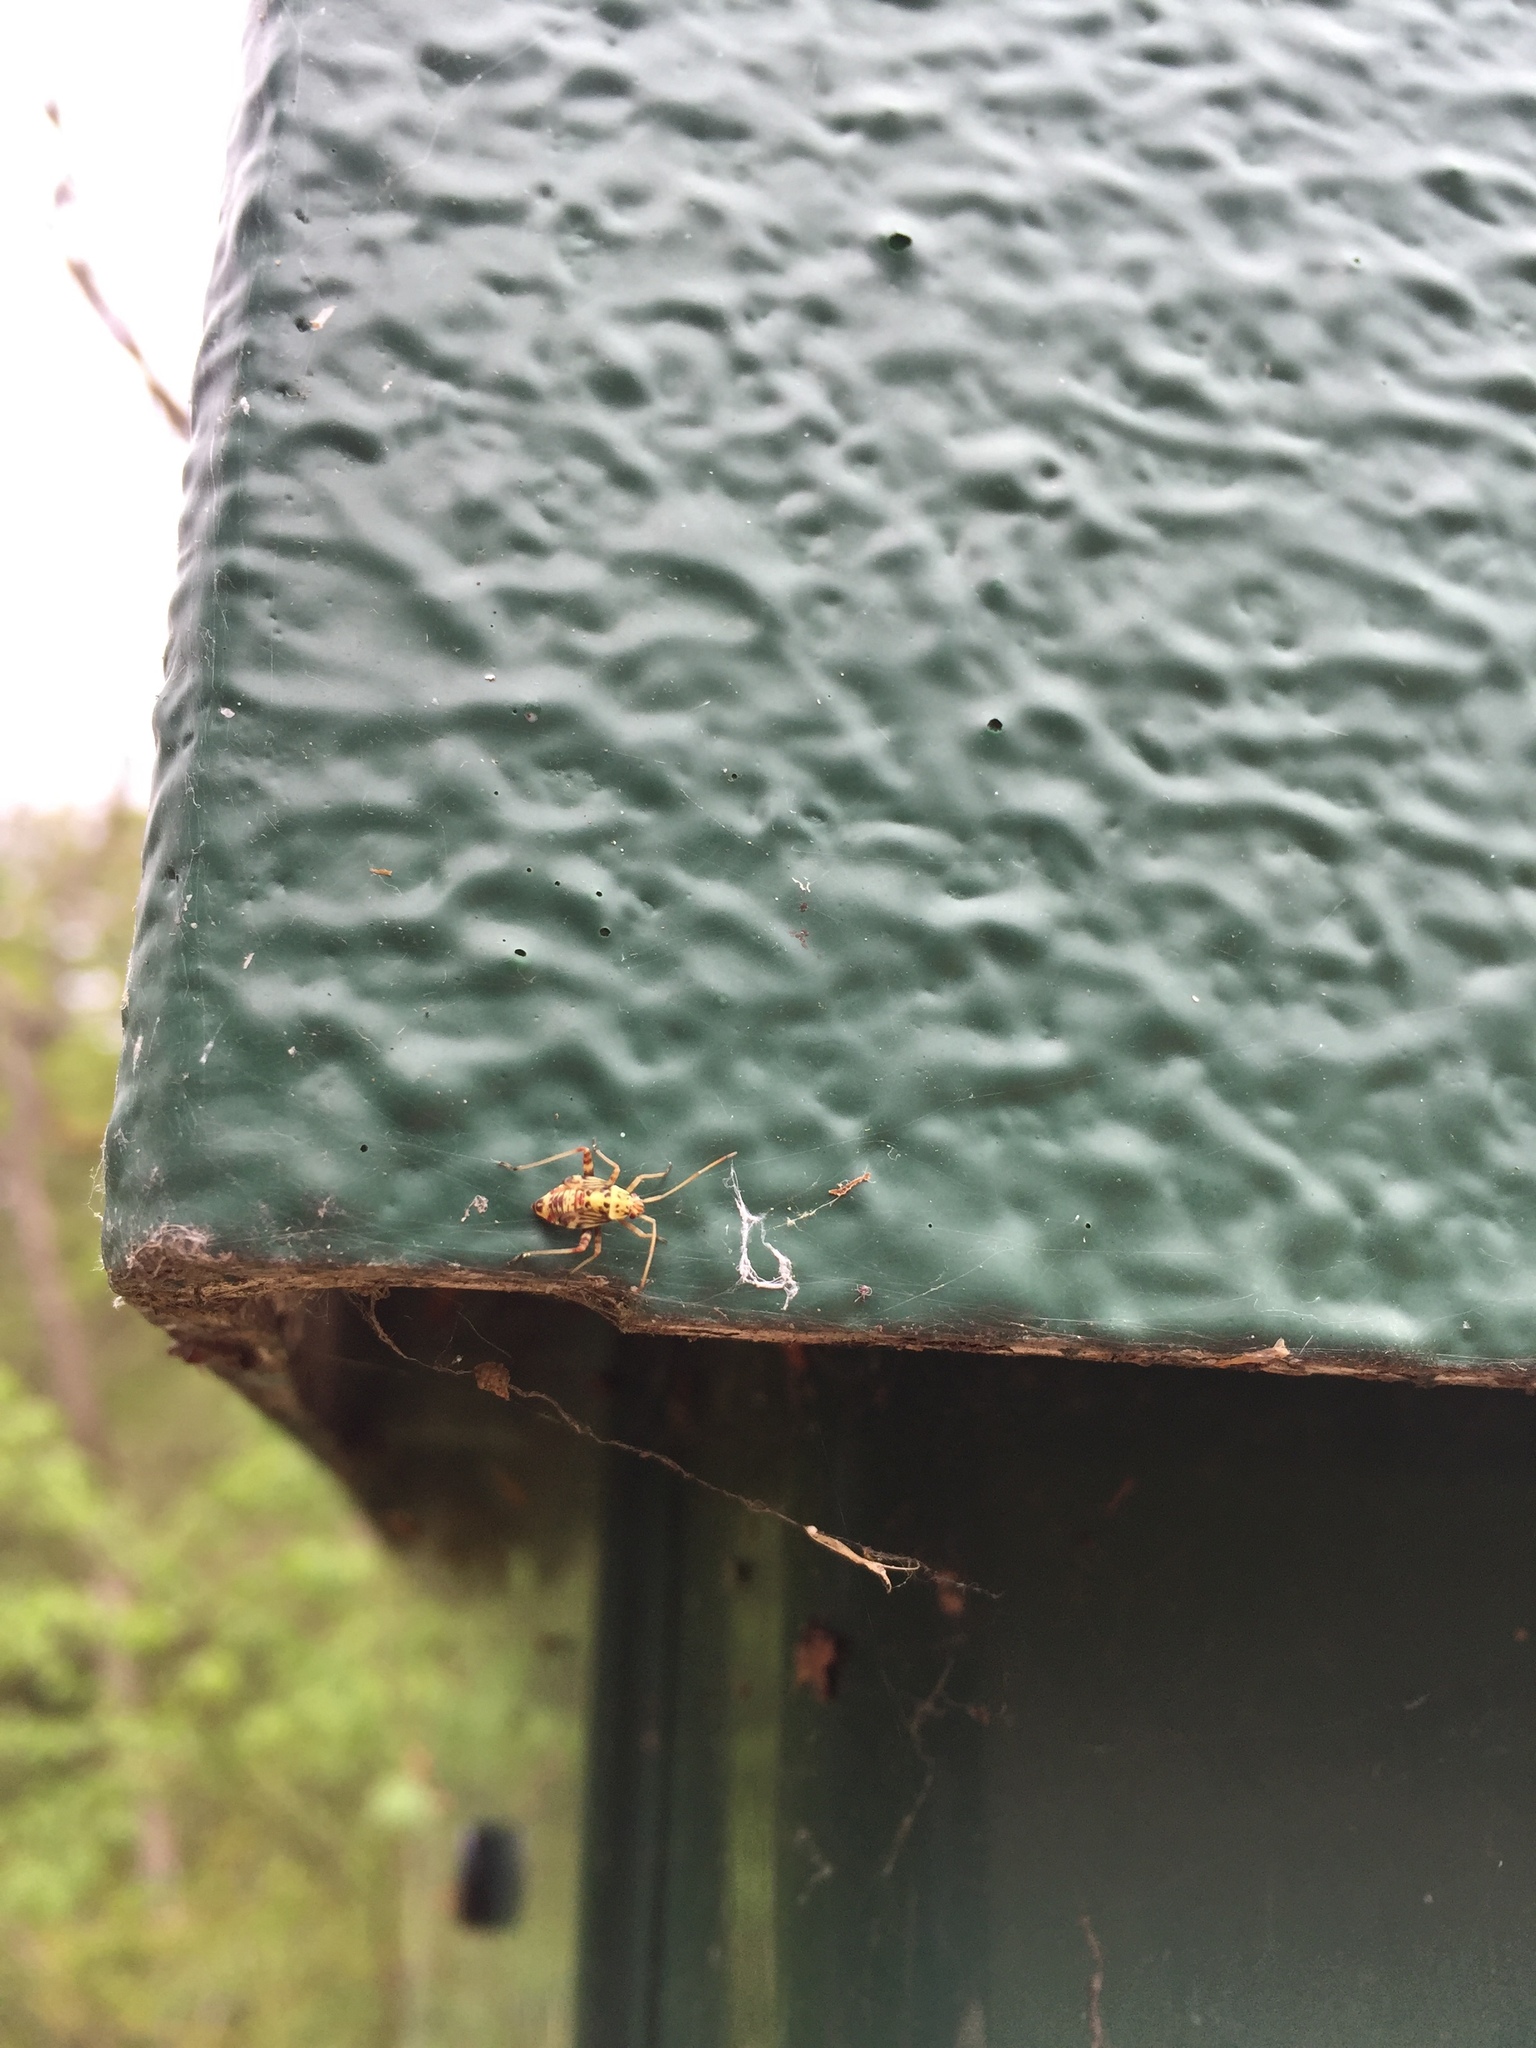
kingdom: Animalia
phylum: Arthropoda
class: Insecta
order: Hemiptera
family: Miridae
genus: Rhabdomiris
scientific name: Rhabdomiris striatellus
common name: Plant bug
